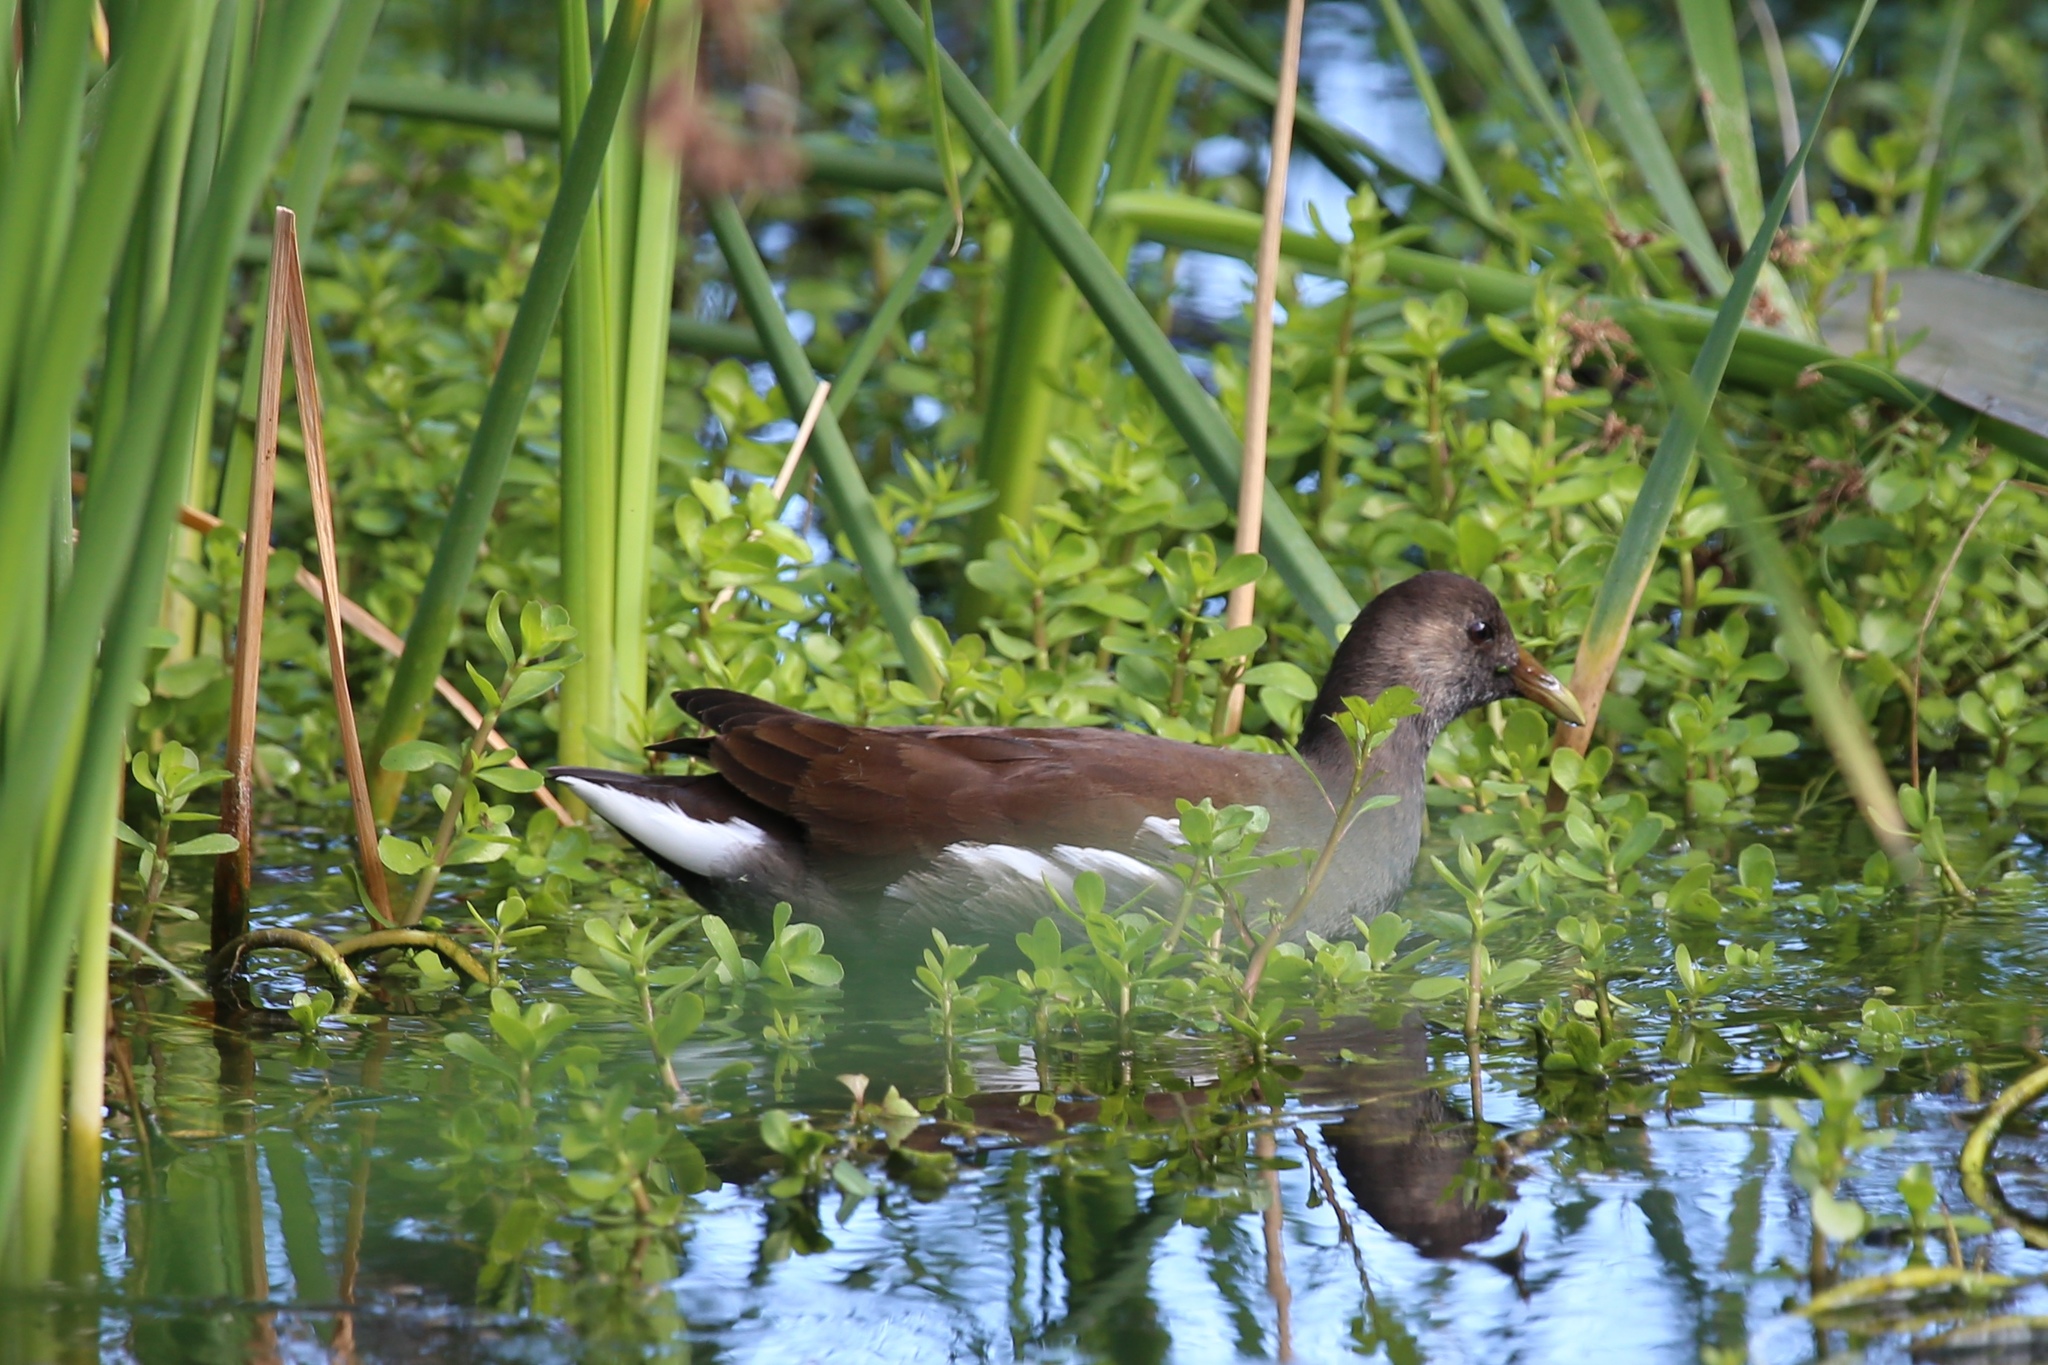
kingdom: Animalia
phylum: Chordata
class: Aves
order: Gruiformes
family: Rallidae
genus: Gallinula
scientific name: Gallinula chloropus
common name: Common moorhen
